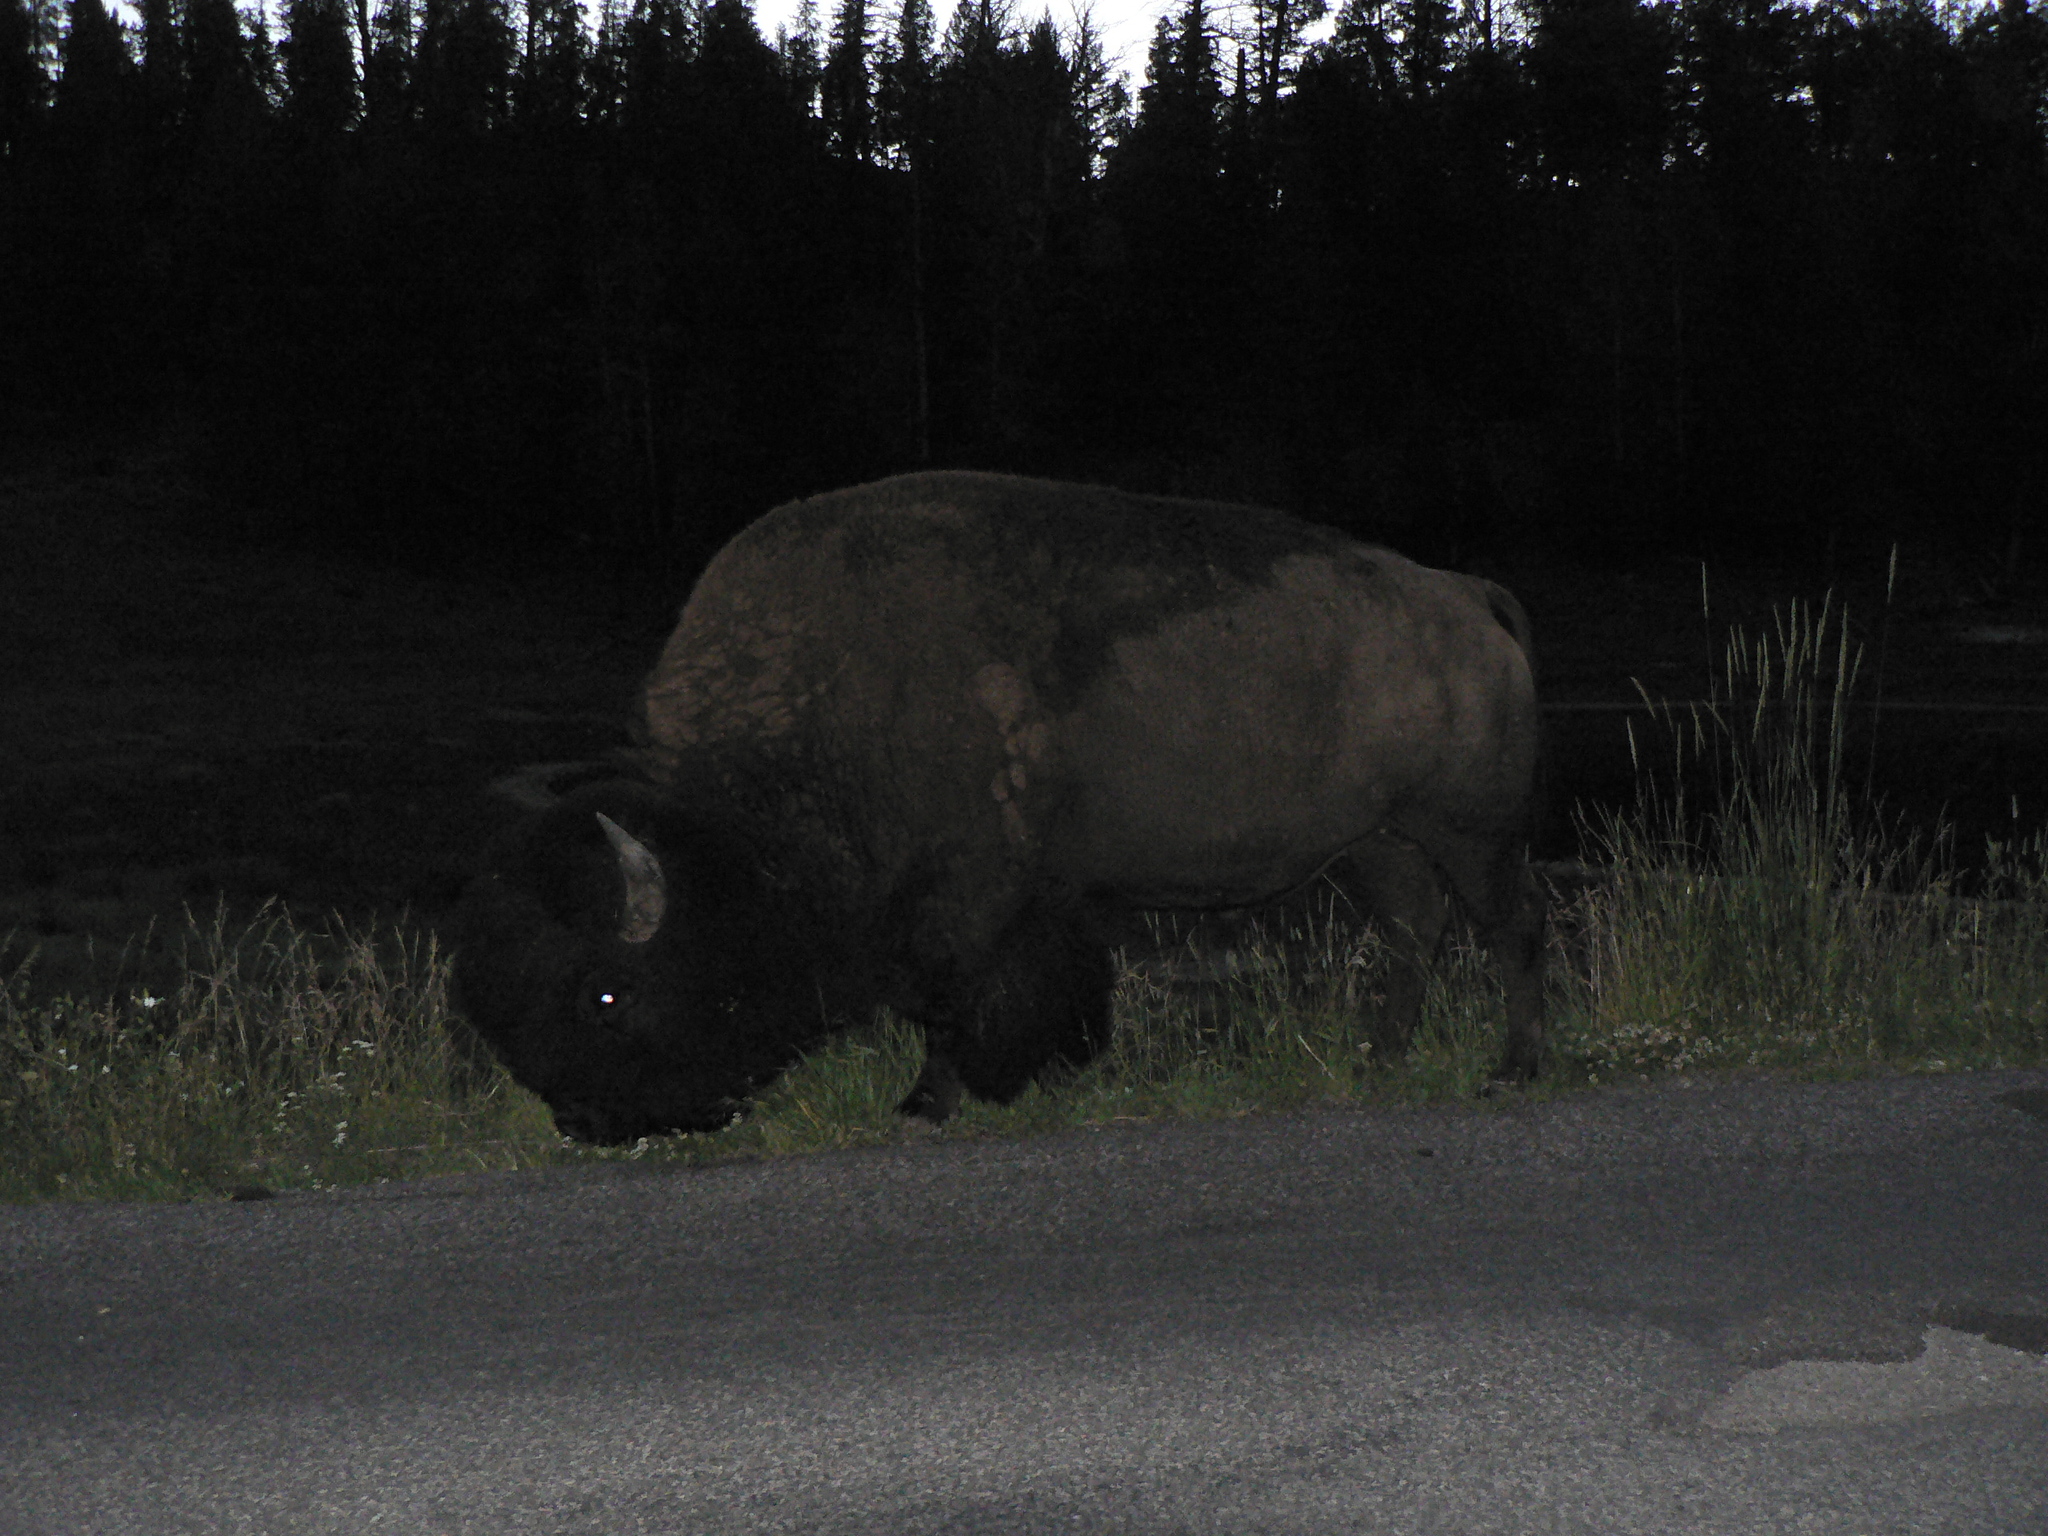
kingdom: Animalia
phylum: Chordata
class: Mammalia
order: Artiodactyla
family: Bovidae
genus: Bison
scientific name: Bison bison
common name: American bison
